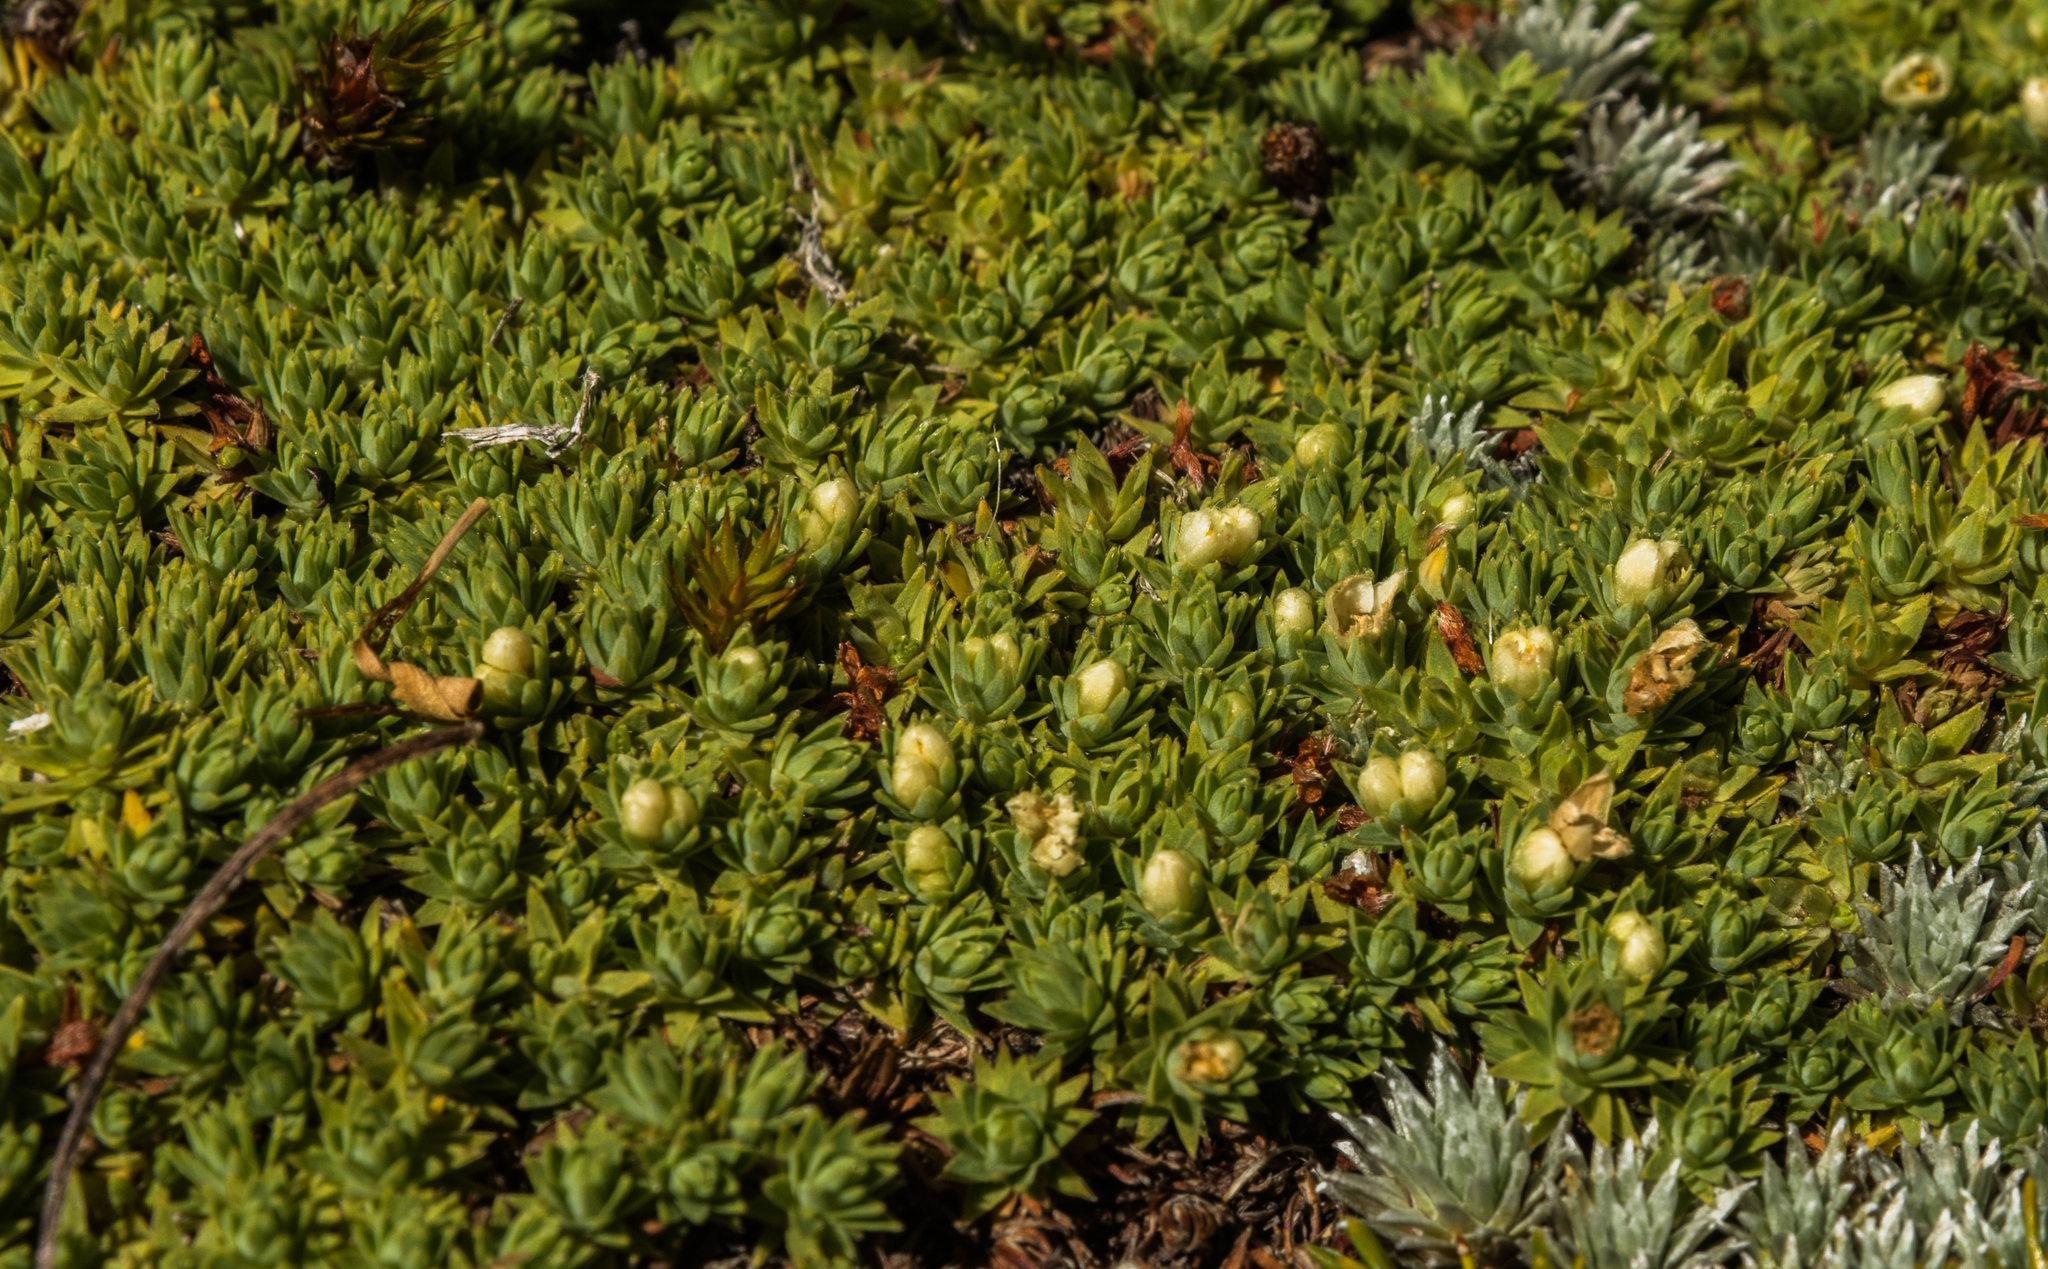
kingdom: Plantae
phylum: Tracheophyta
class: Magnoliopsida
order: Malvales
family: Thymelaeaceae
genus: Kelleria
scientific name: Kelleria croizatii
